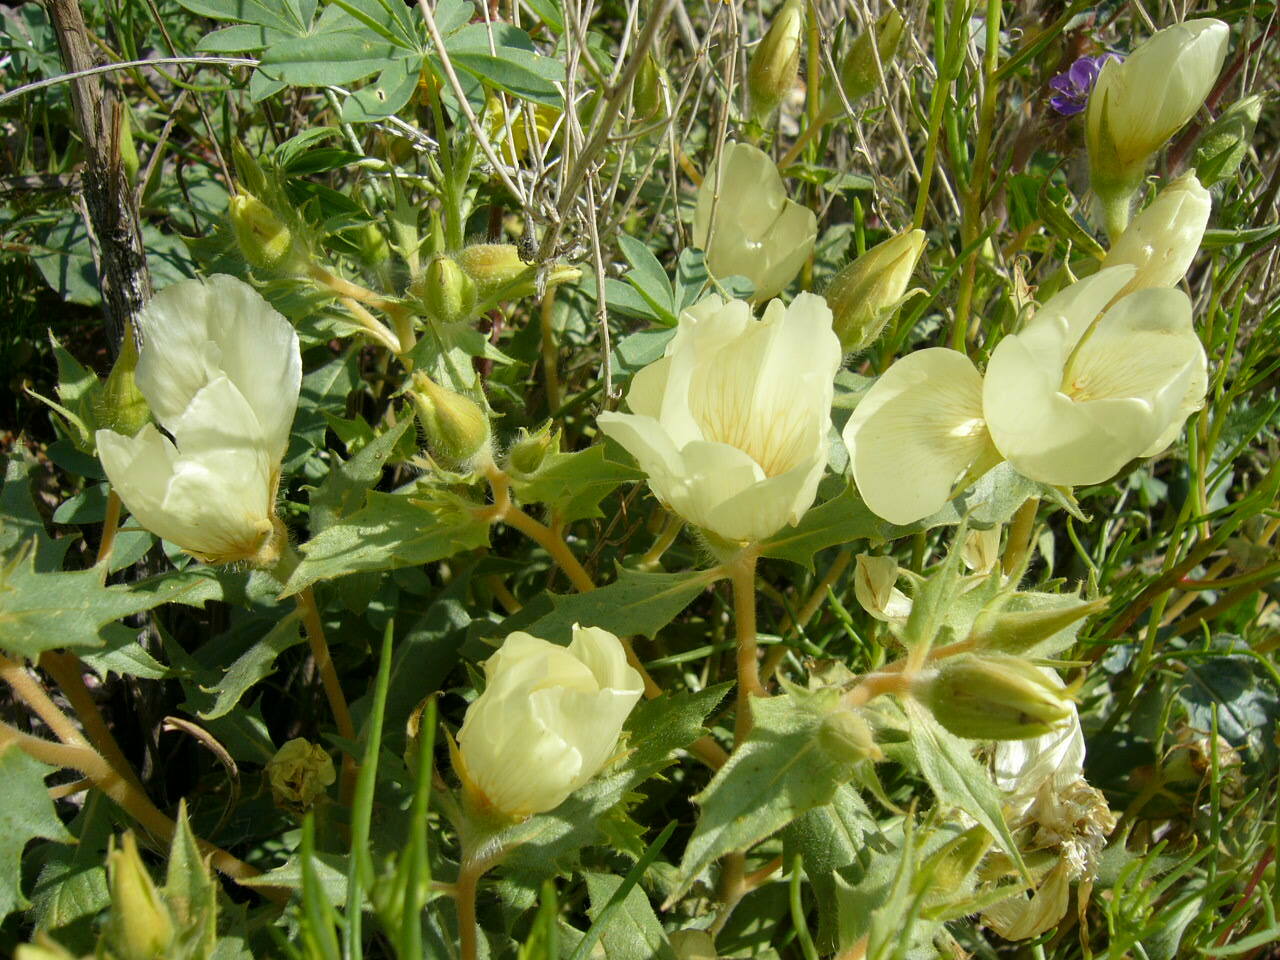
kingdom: Plantae
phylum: Tracheophyta
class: Magnoliopsida
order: Cornales
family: Loasaceae
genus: Mentzelia
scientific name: Mentzelia tricuspis
